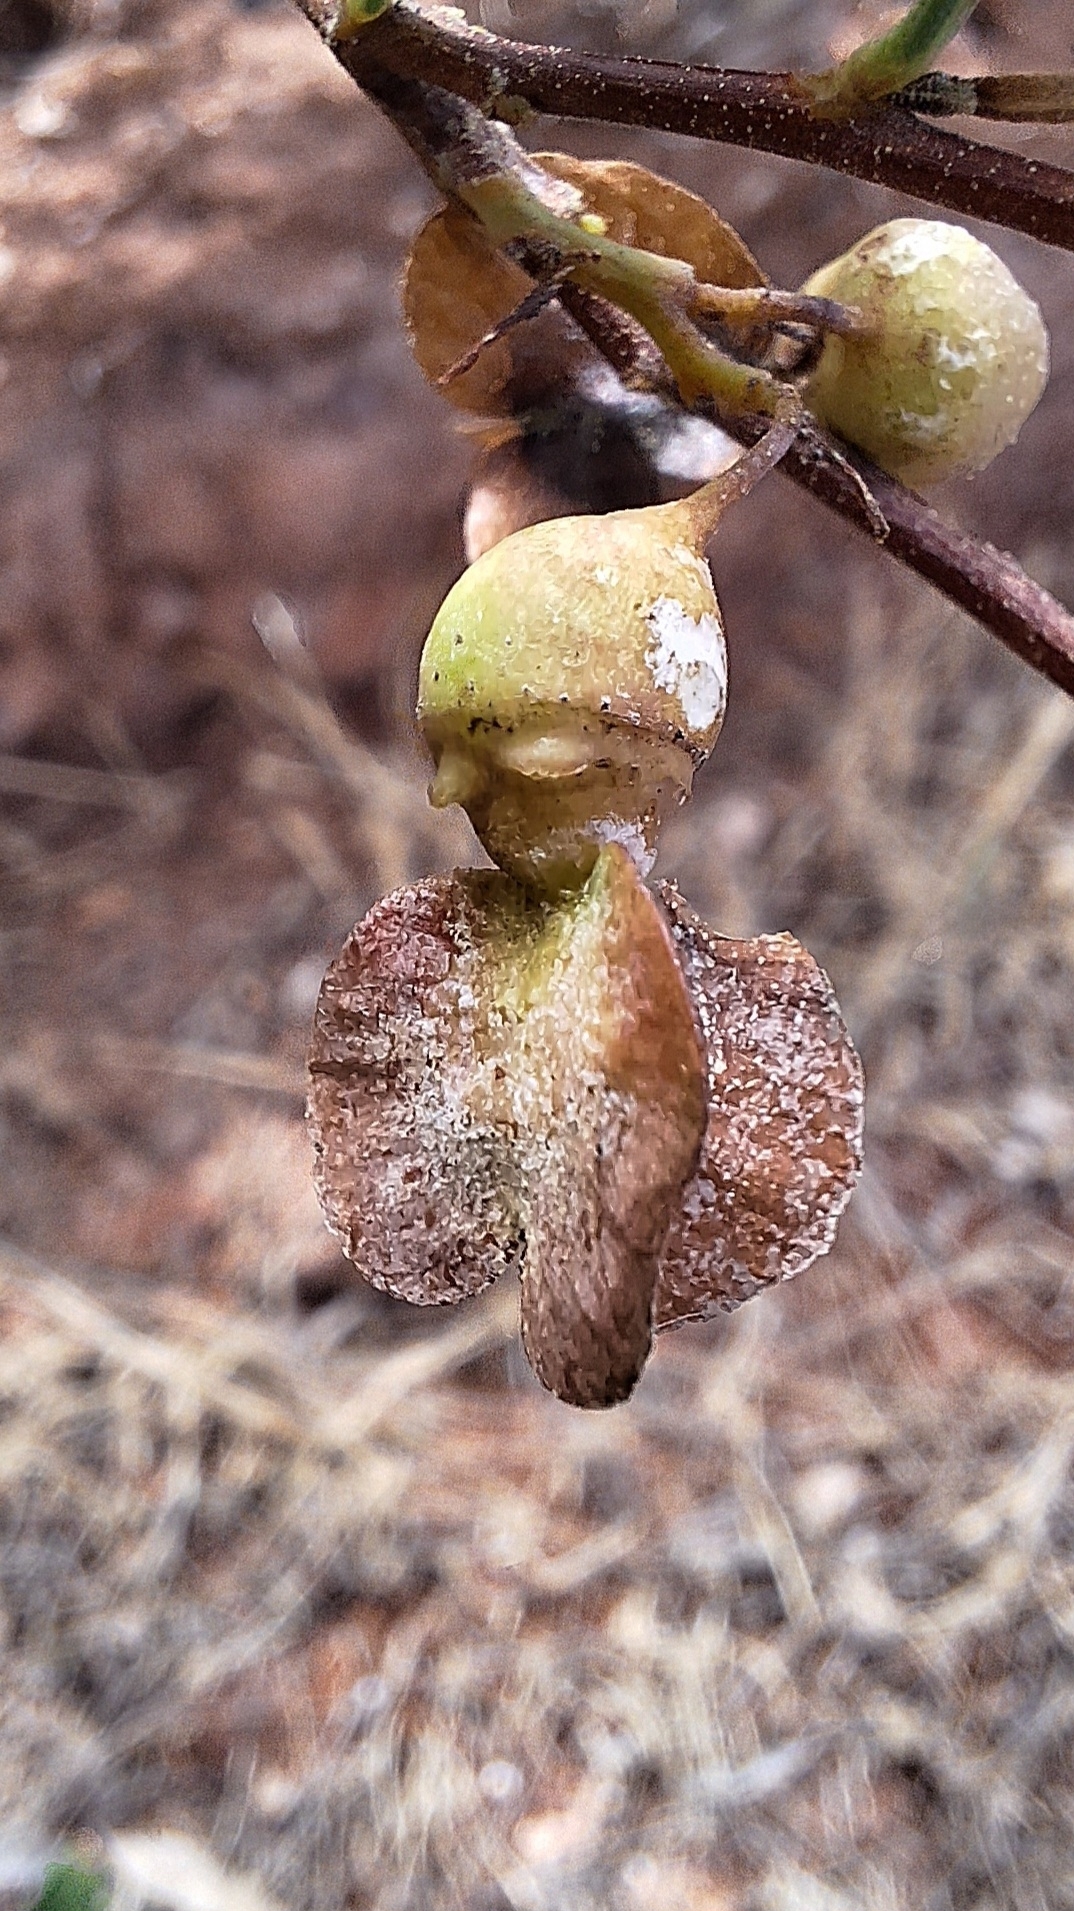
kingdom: Plantae
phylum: Tracheophyta
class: Magnoliopsida
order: Sapindales
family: Sapindaceae
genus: Dodonaea
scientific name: Dodonaea viscosa
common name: Hopbush
